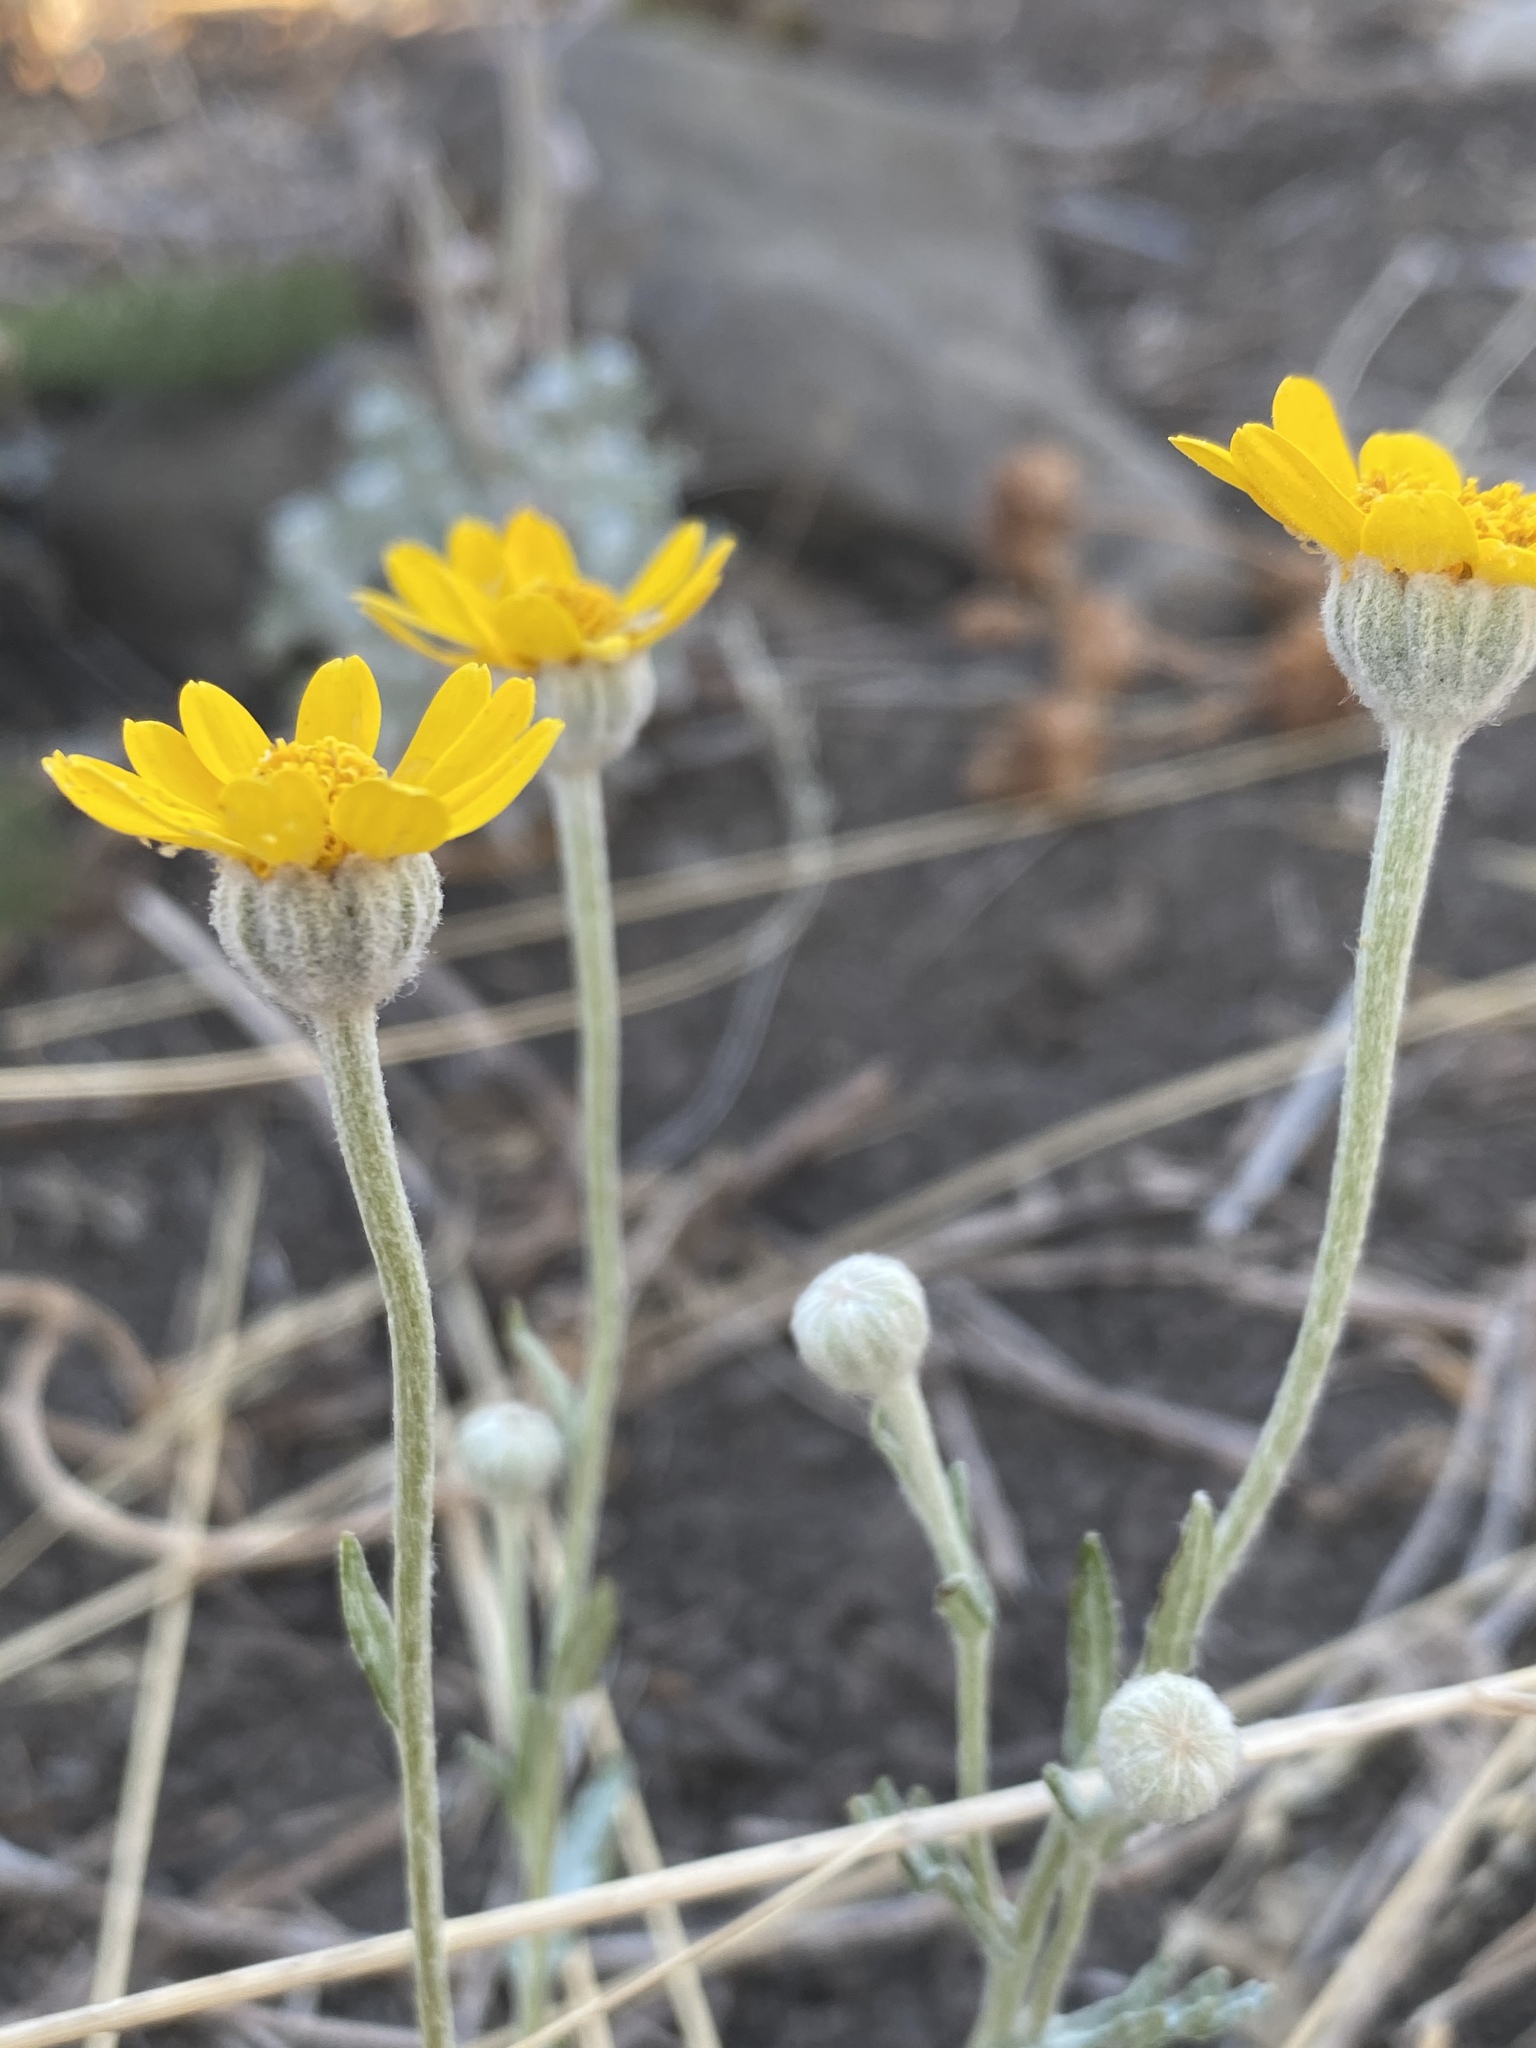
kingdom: Plantae
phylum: Tracheophyta
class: Magnoliopsida
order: Asterales
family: Asteraceae
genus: Eriophyllum
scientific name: Eriophyllum lanatum
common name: Common woolly-sunflower
